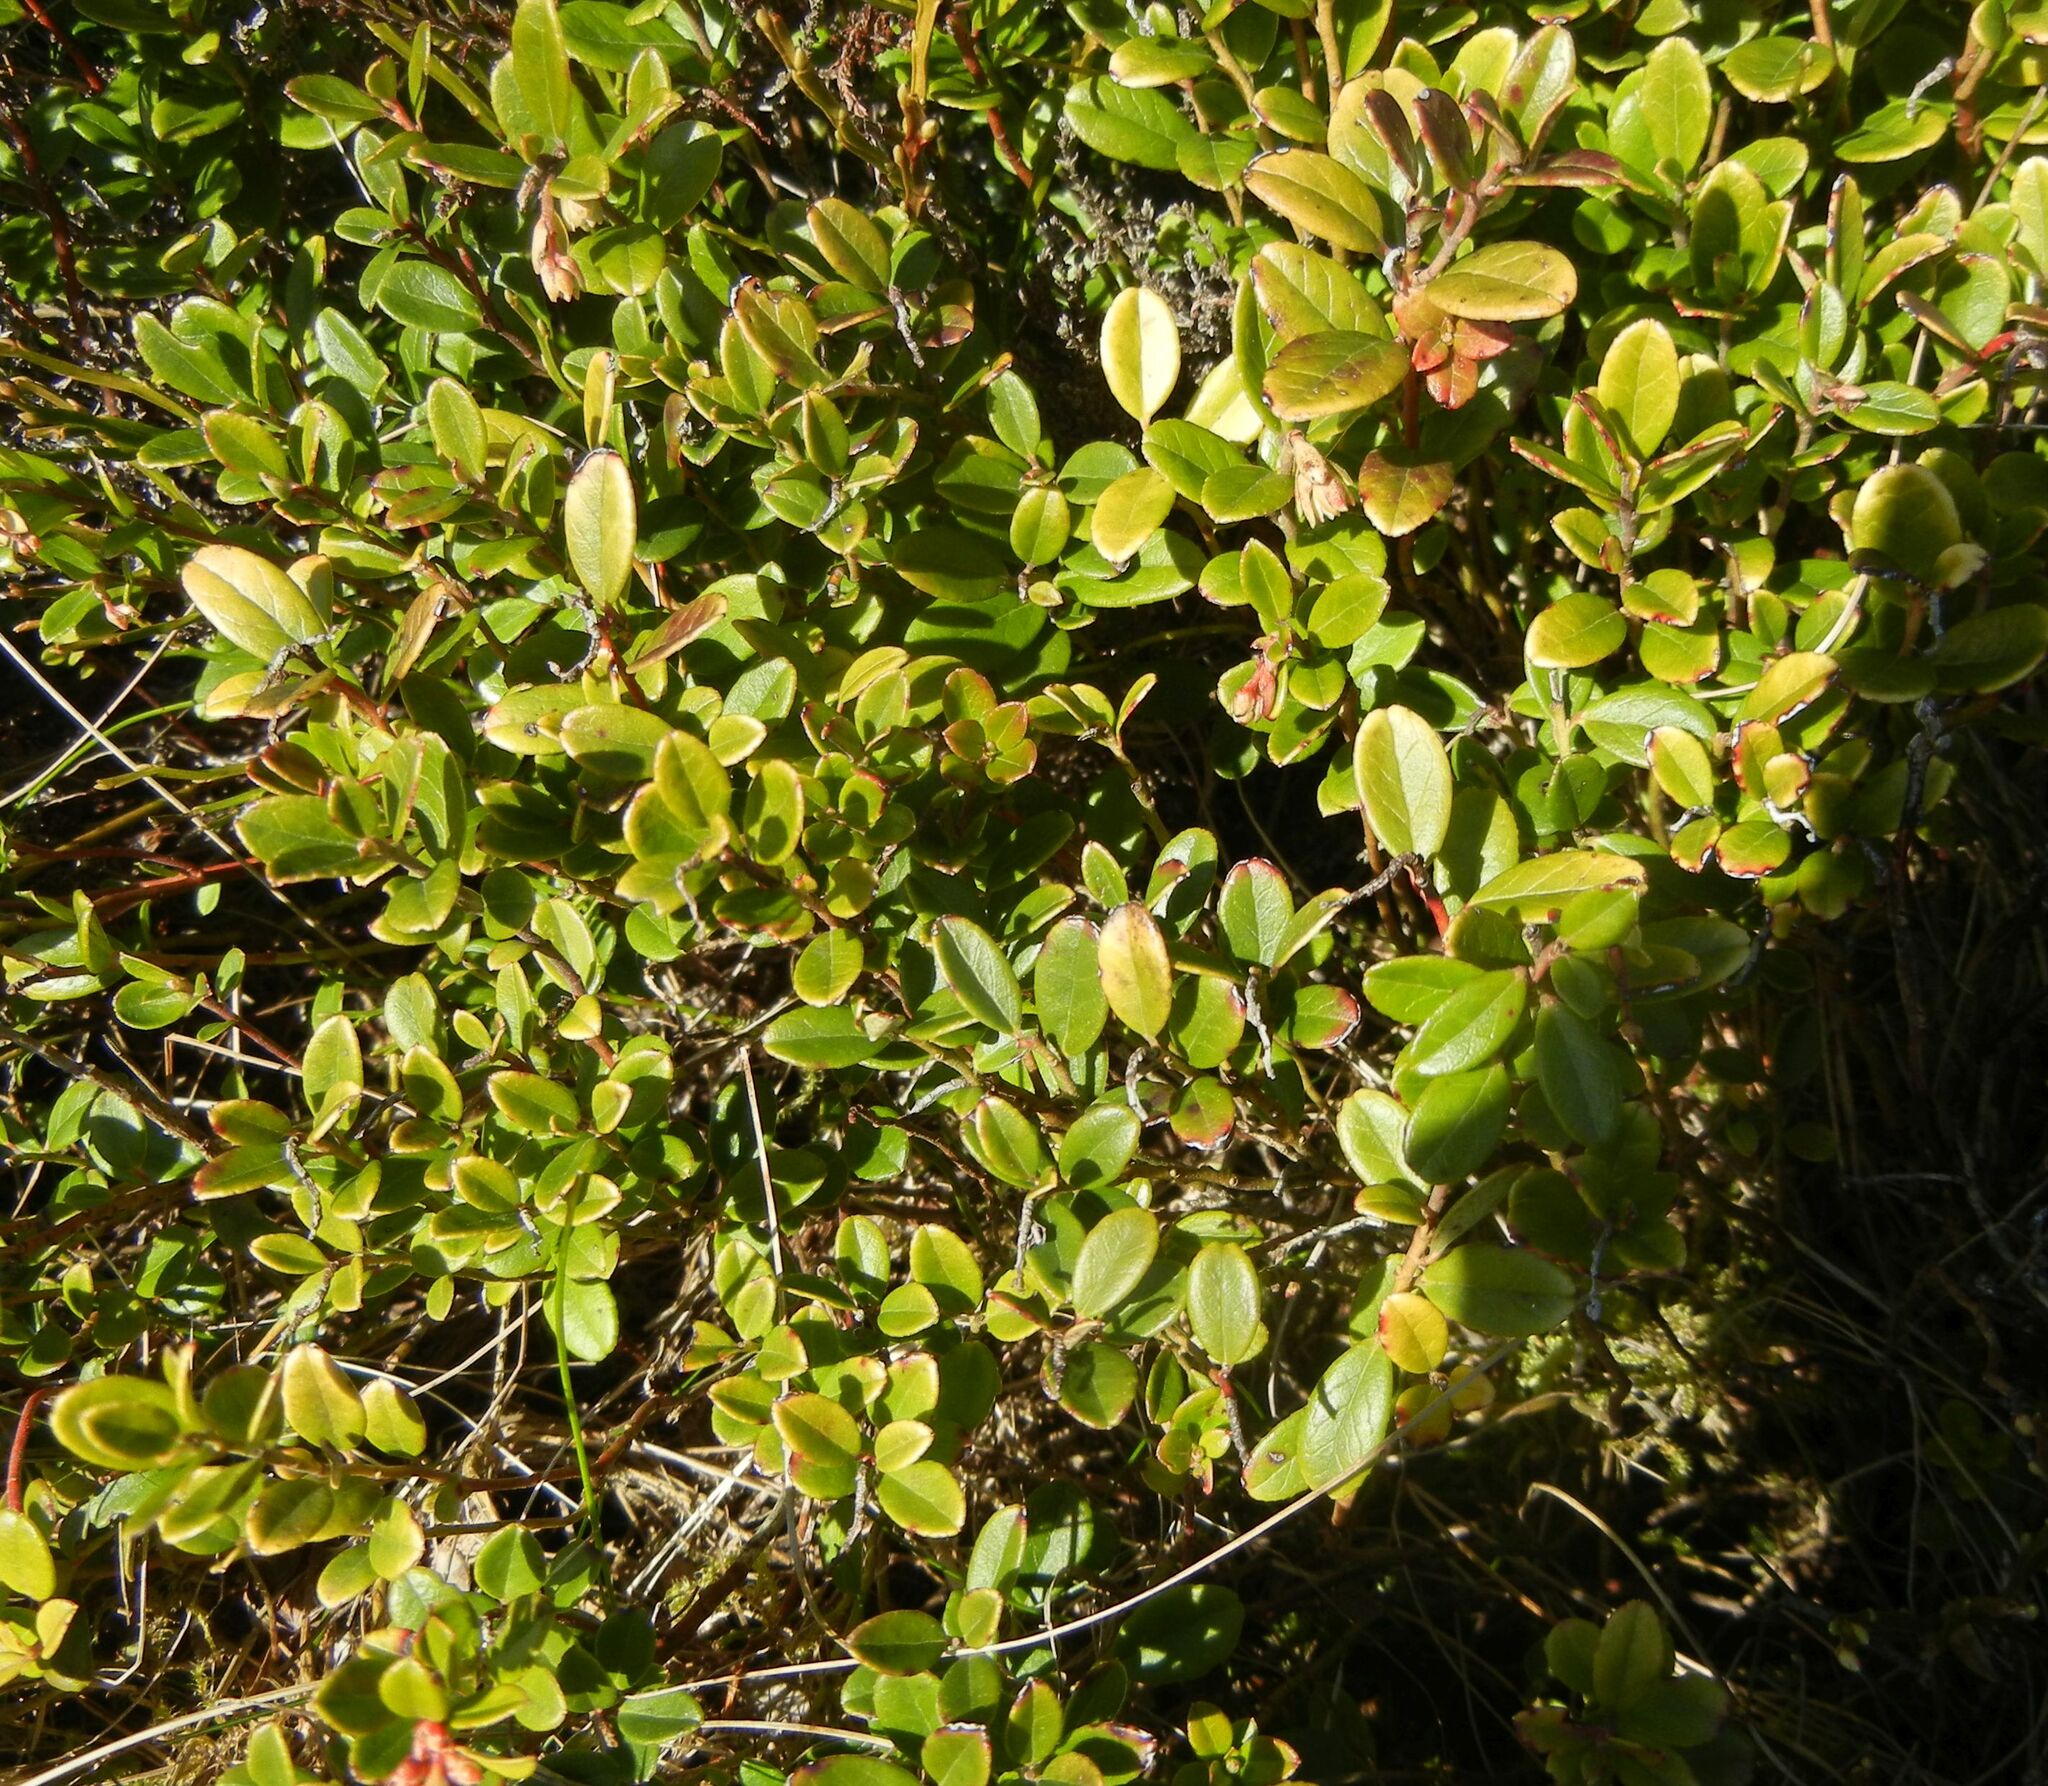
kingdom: Plantae
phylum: Tracheophyta
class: Magnoliopsida
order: Ericales
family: Ericaceae
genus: Vaccinium
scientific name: Vaccinium vitis-idaea
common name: Cowberry
